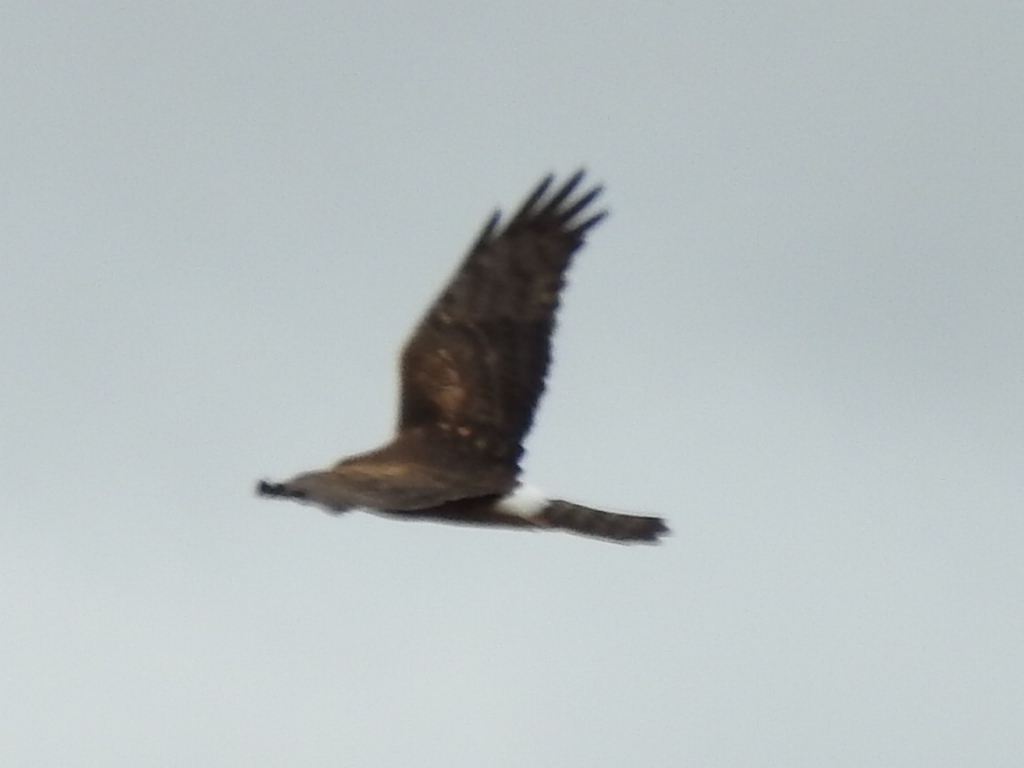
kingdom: Animalia
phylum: Chordata
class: Aves
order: Accipitriformes
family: Accipitridae
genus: Circus
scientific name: Circus cyaneus
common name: Hen harrier
